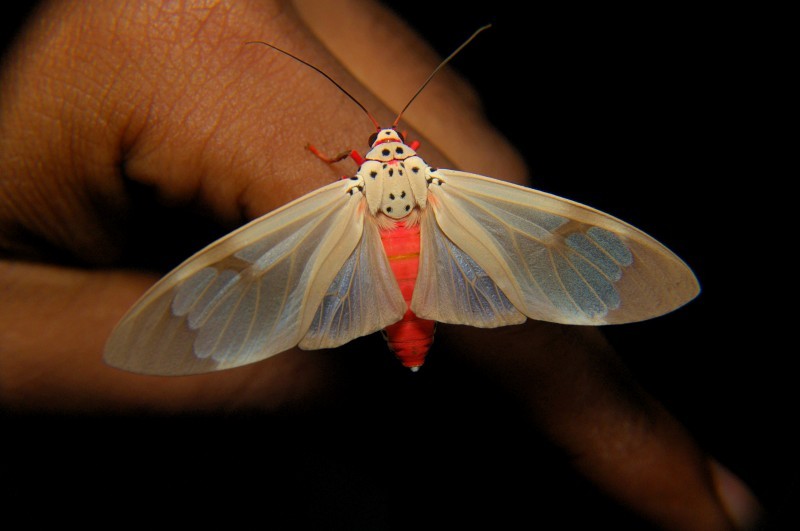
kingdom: Animalia
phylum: Arthropoda
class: Insecta
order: Lepidoptera
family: Erebidae
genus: Amerila
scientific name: Amerila astreus
